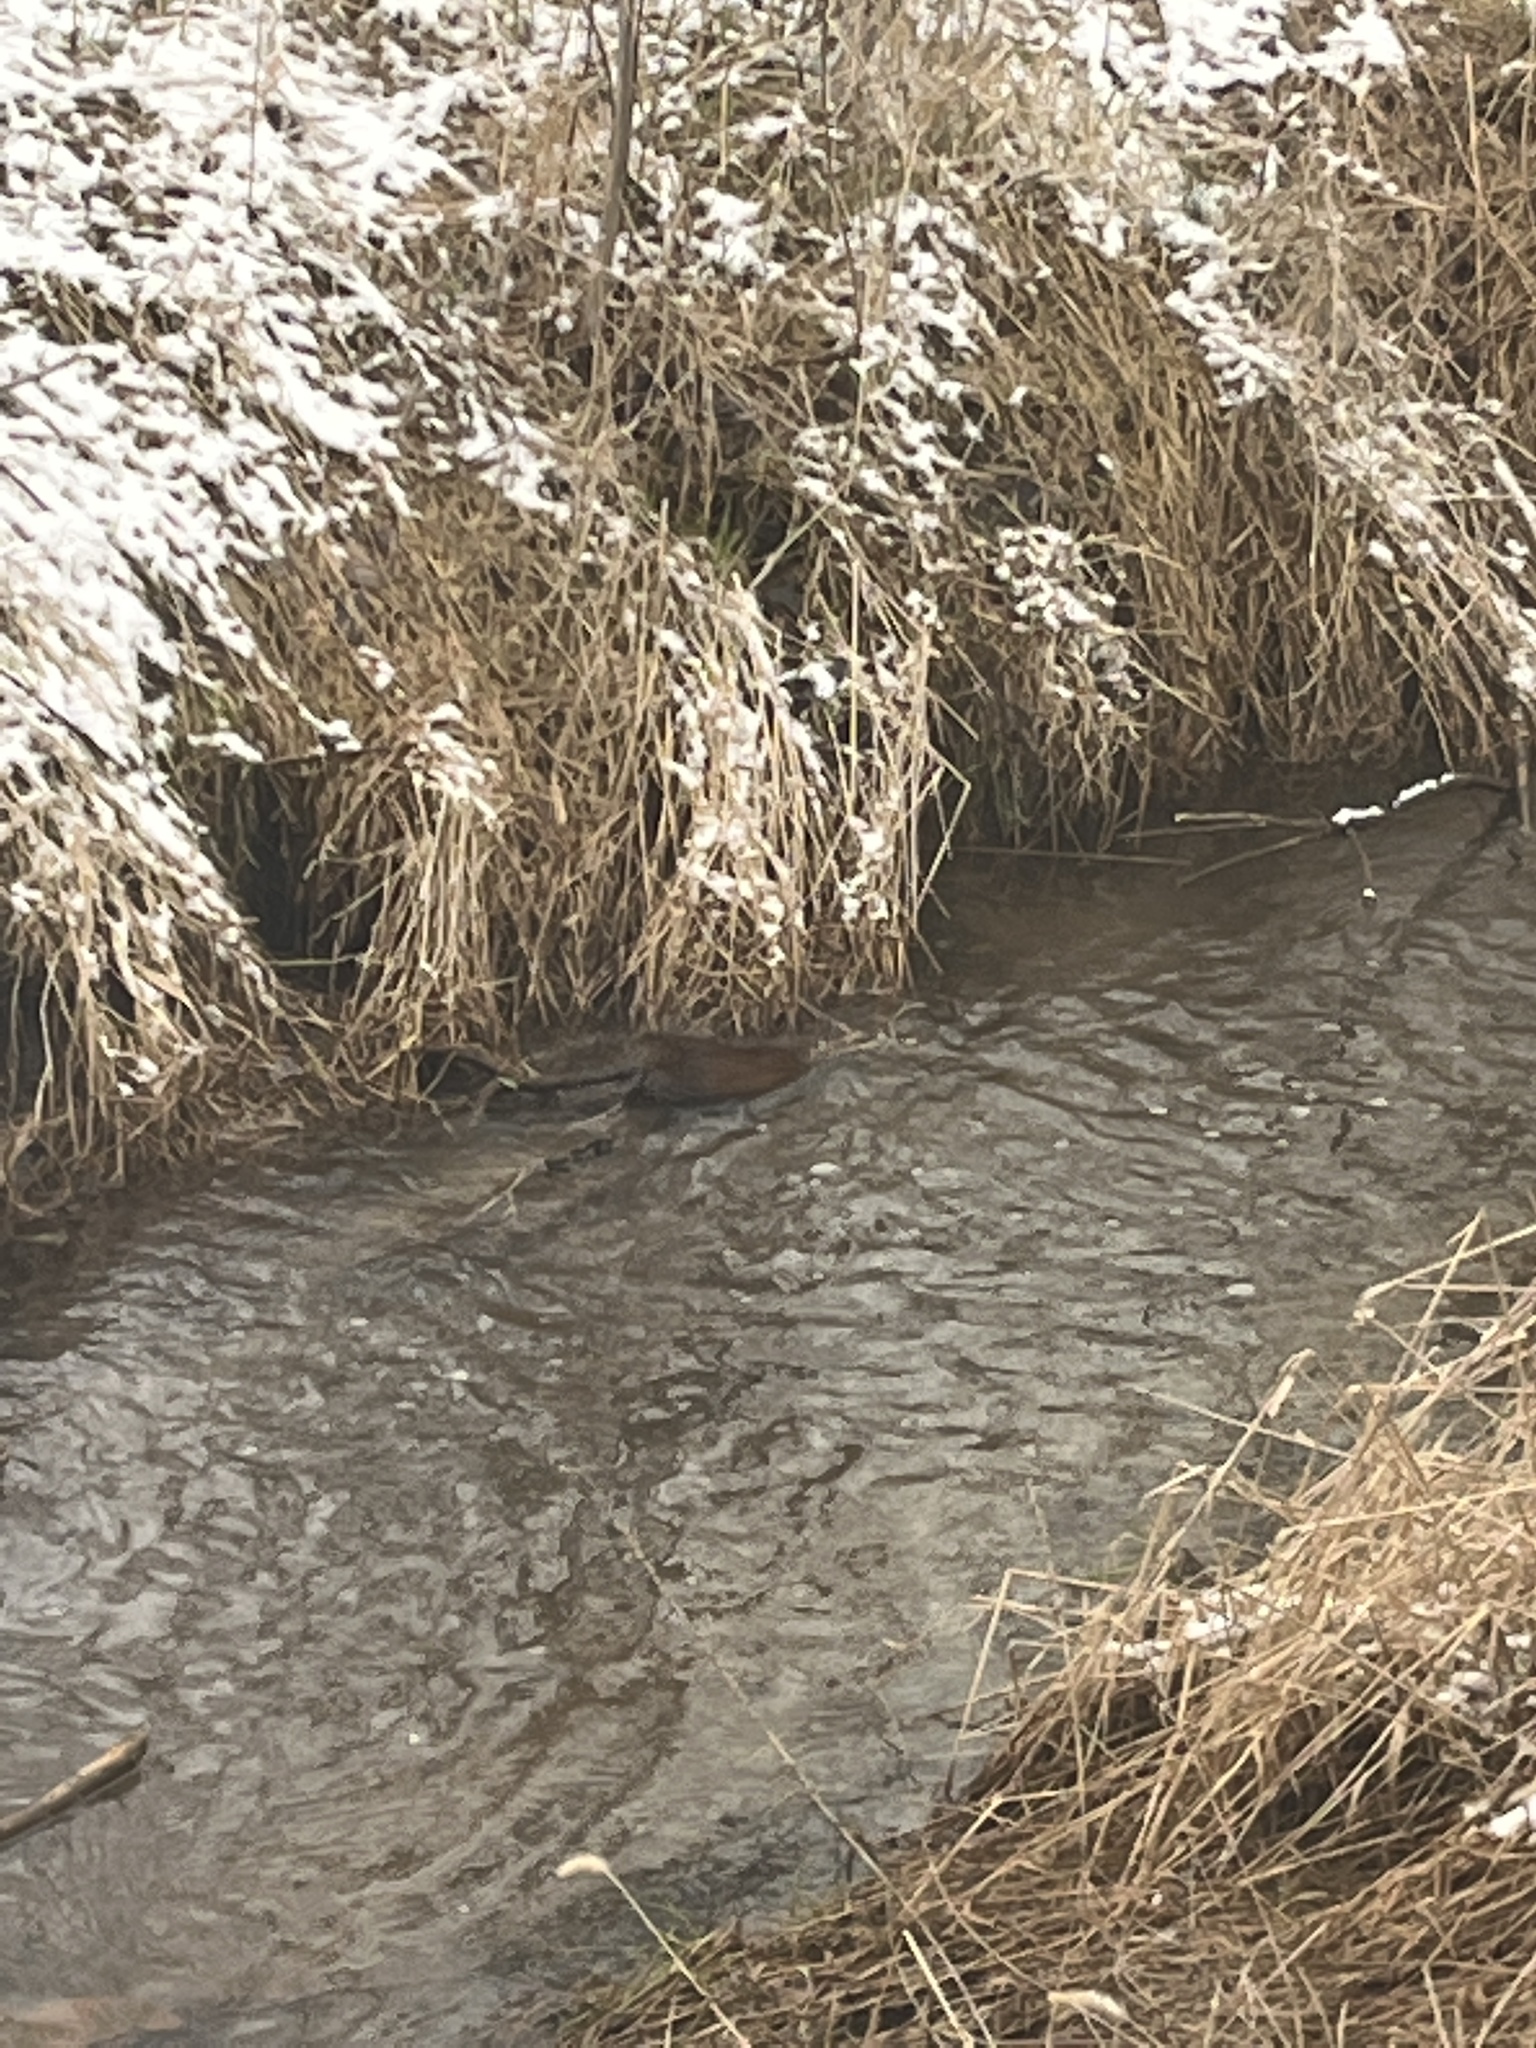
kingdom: Animalia
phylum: Chordata
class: Mammalia
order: Rodentia
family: Cricetidae
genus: Ondatra
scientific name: Ondatra zibethicus
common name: Muskrat
